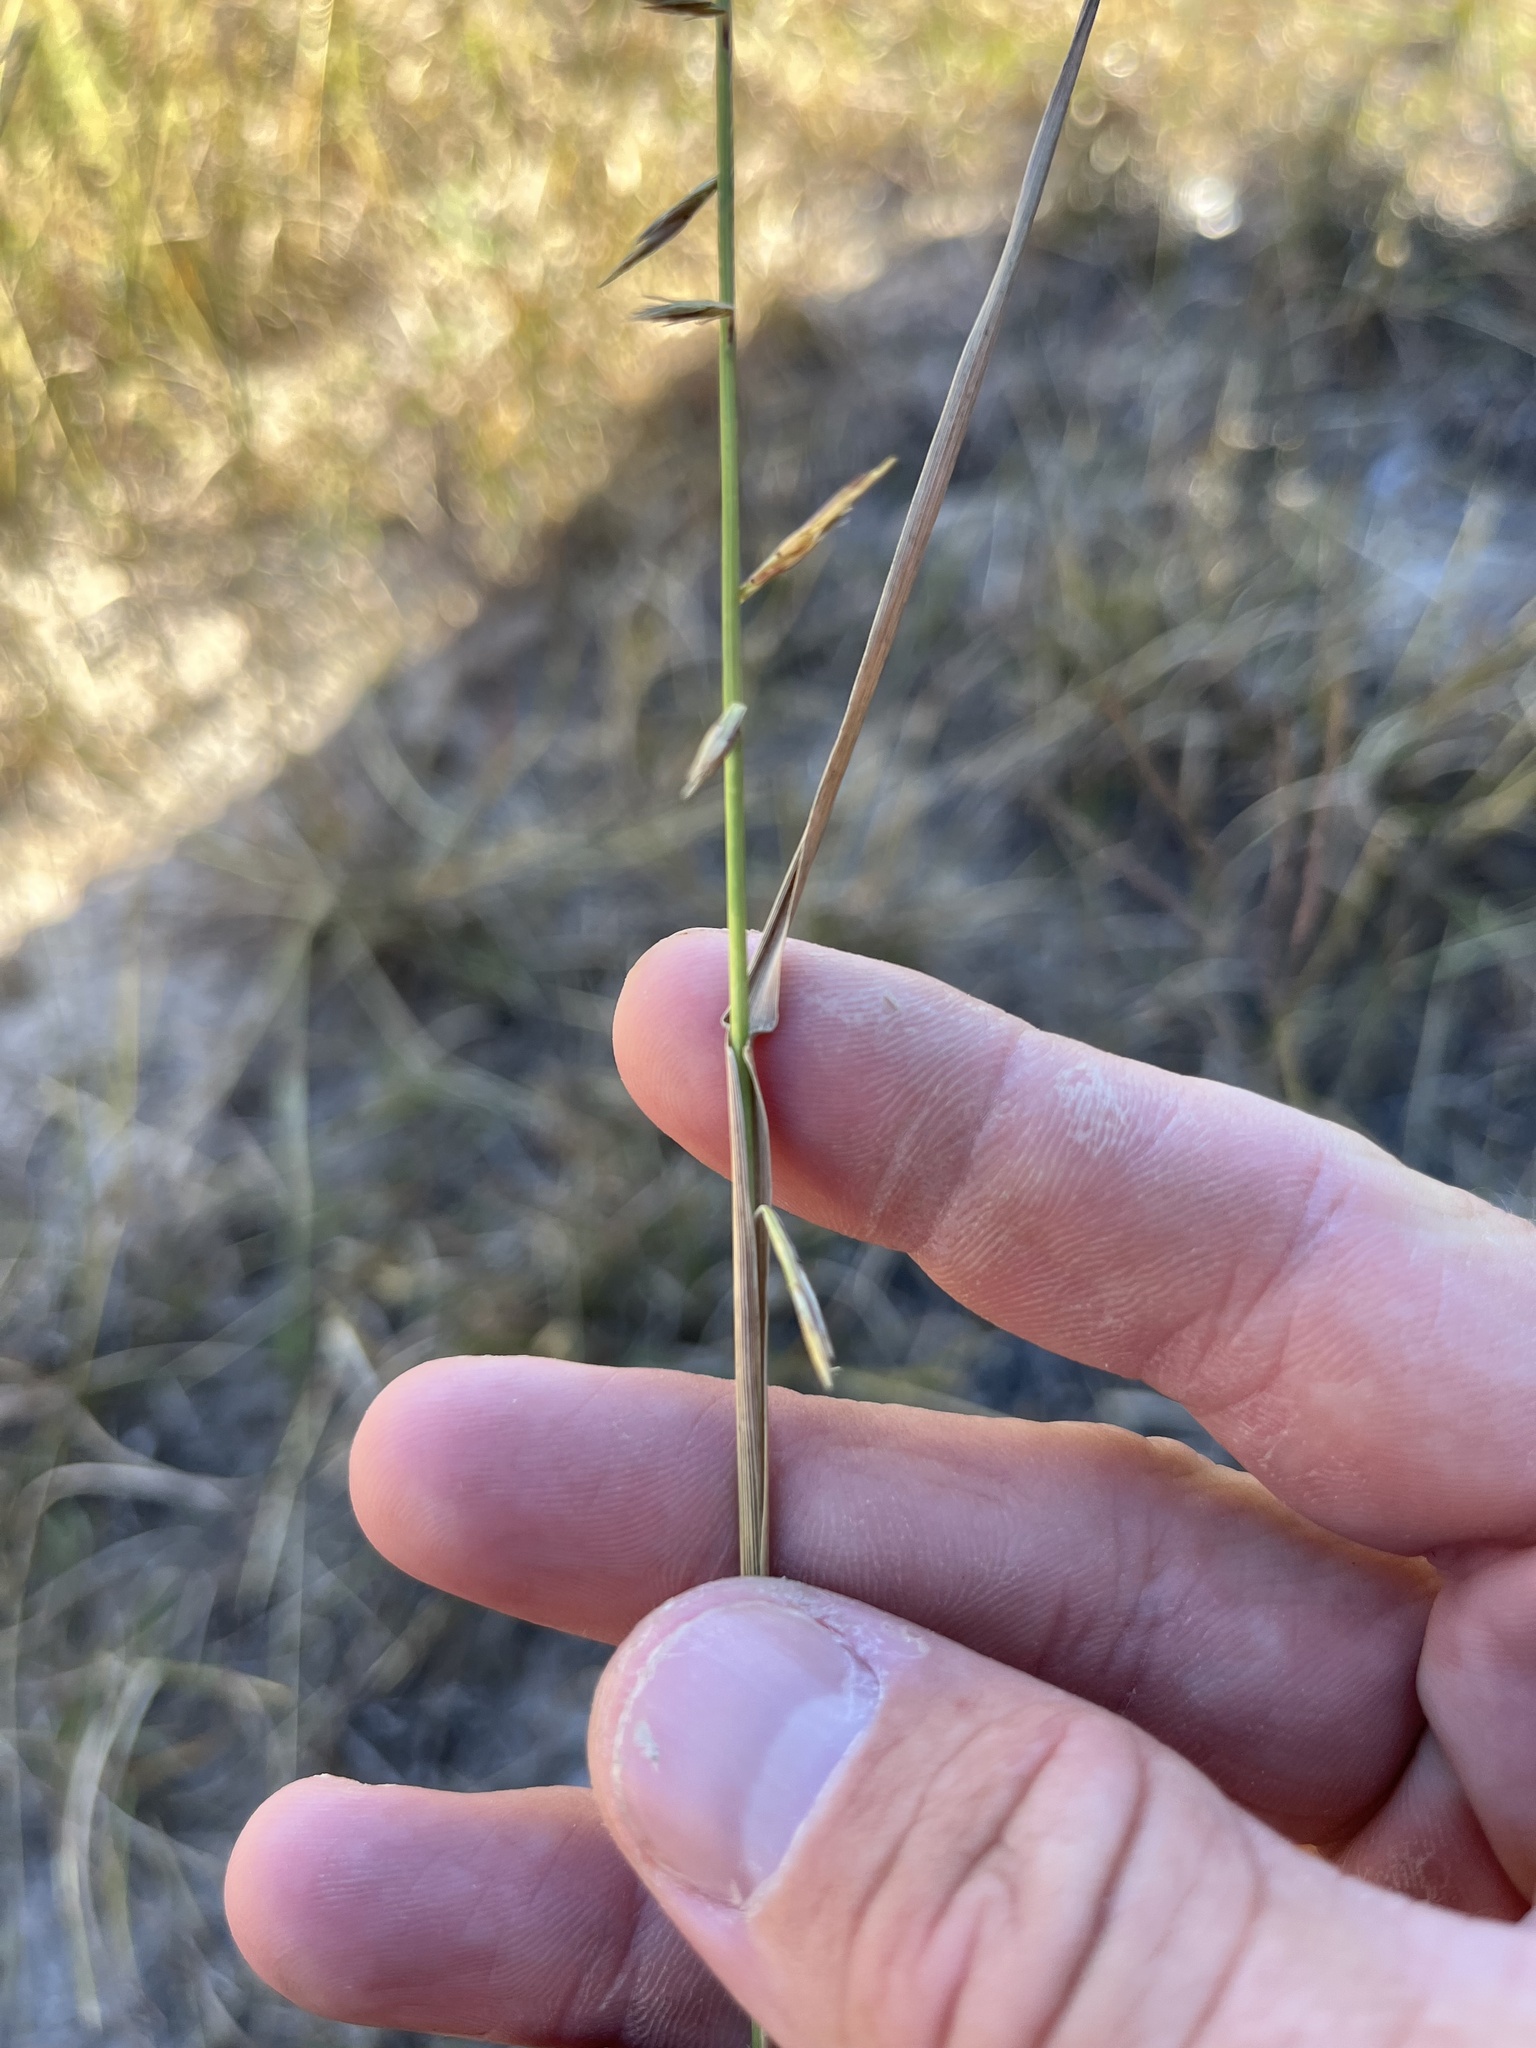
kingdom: Plantae
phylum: Tracheophyta
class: Liliopsida
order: Poales
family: Poaceae
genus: Bouteloua
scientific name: Bouteloua curtipendula
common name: Side-oats grama
